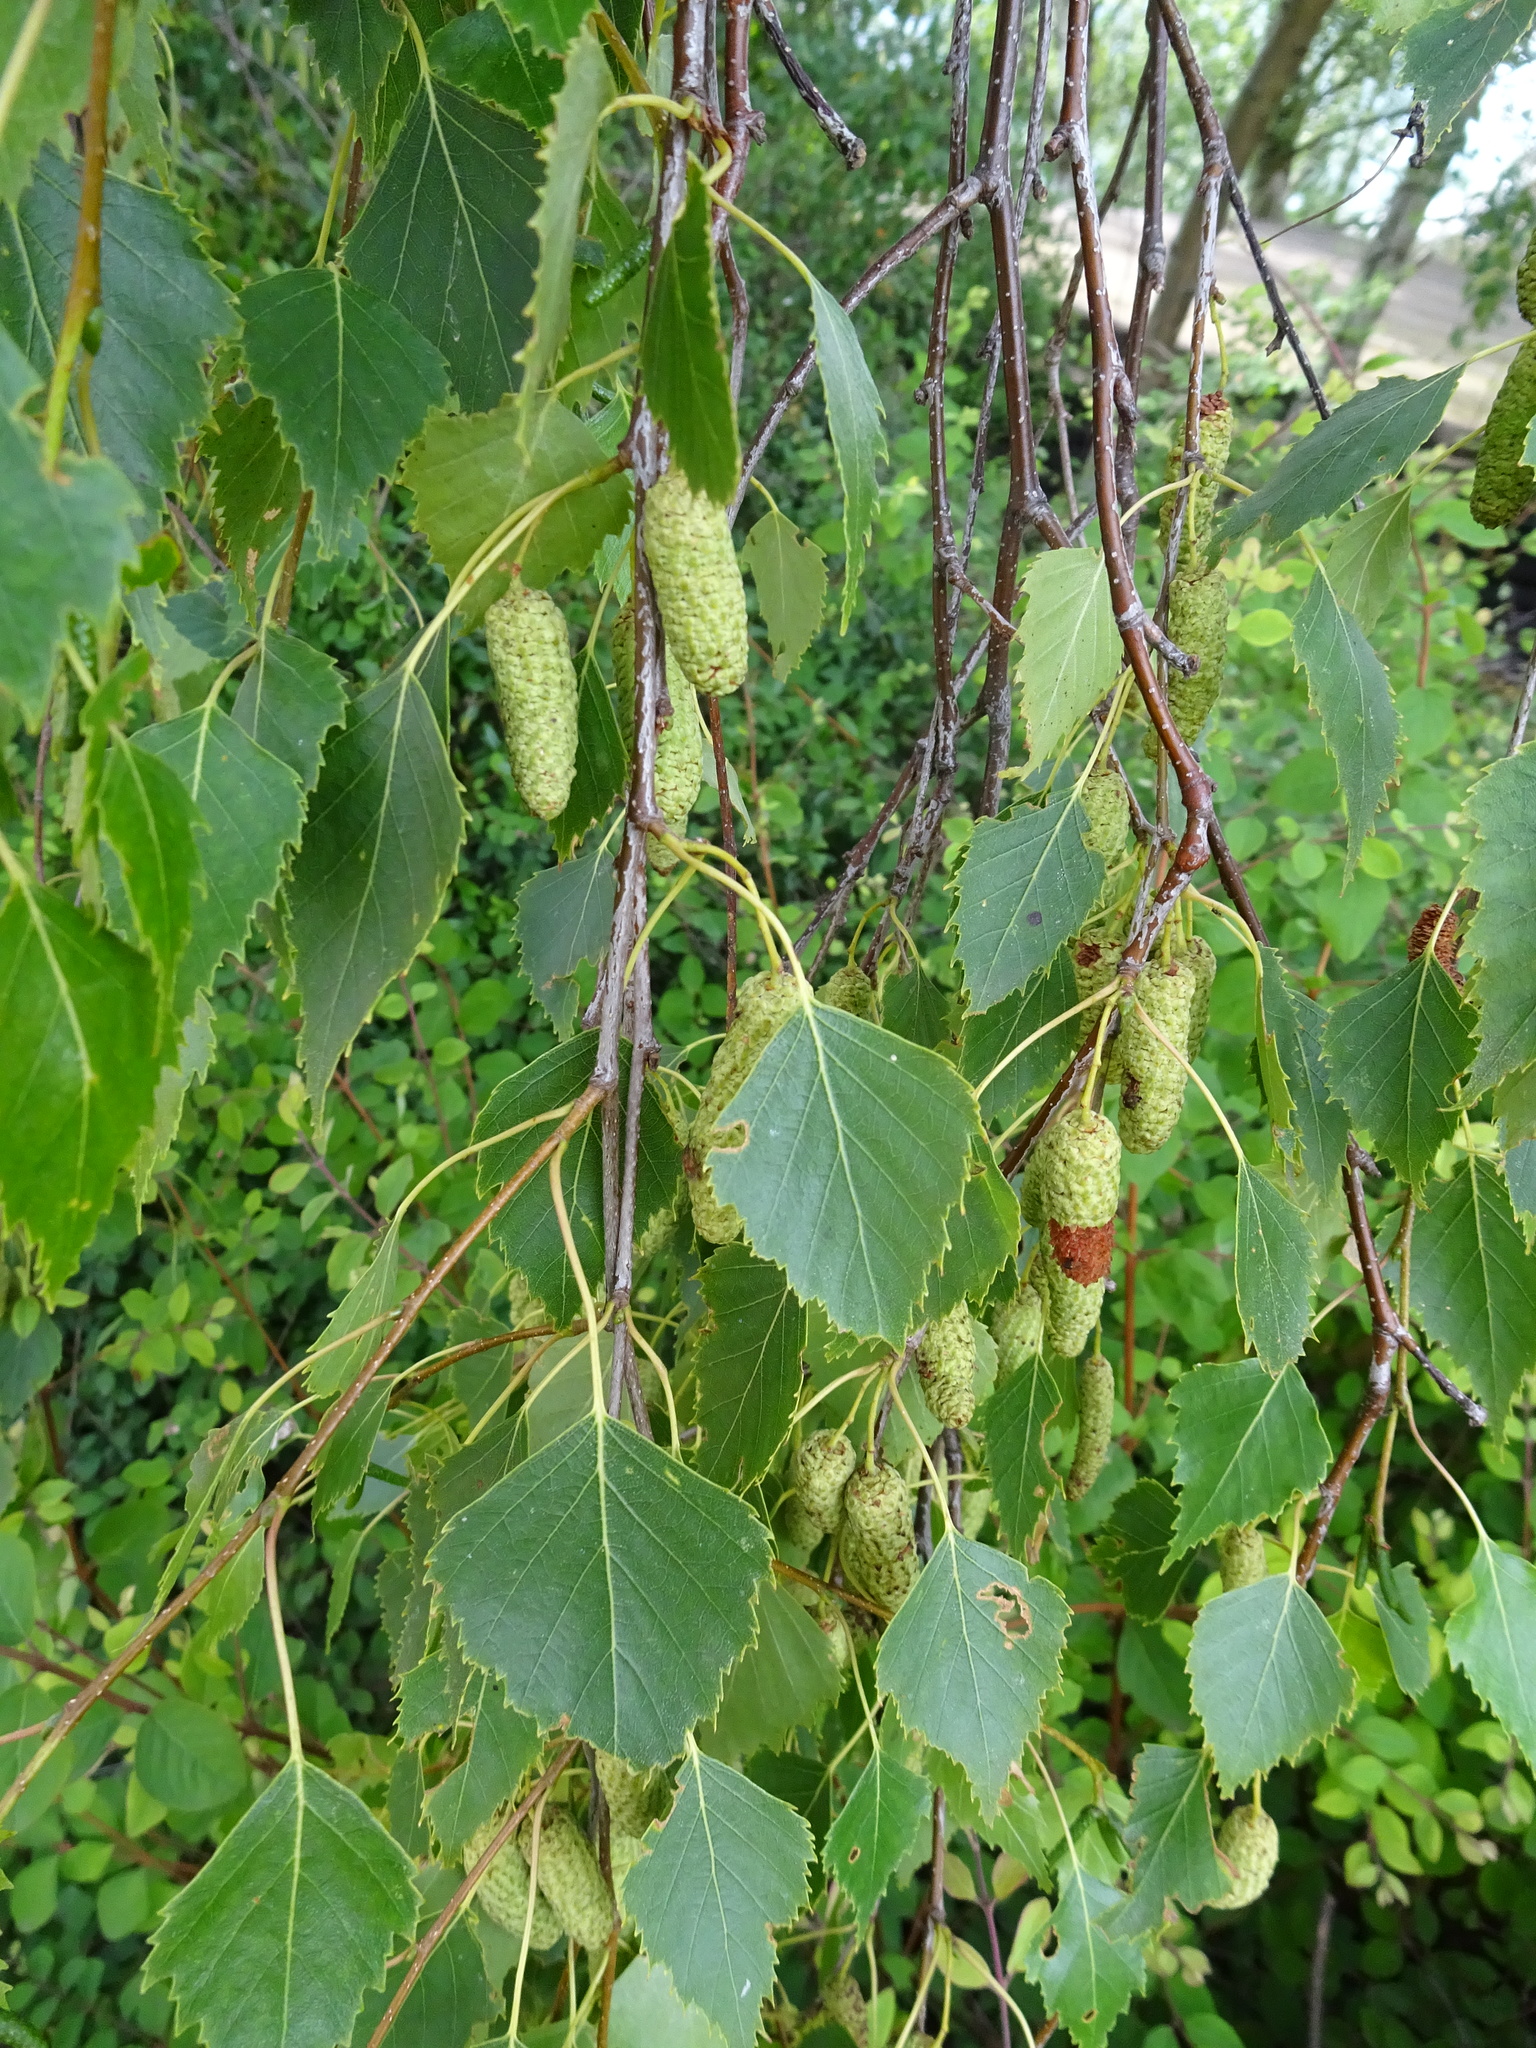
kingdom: Plantae
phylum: Tracheophyta
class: Magnoliopsida
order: Fagales
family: Betulaceae
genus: Betula
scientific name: Betula pendula
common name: Silver birch
